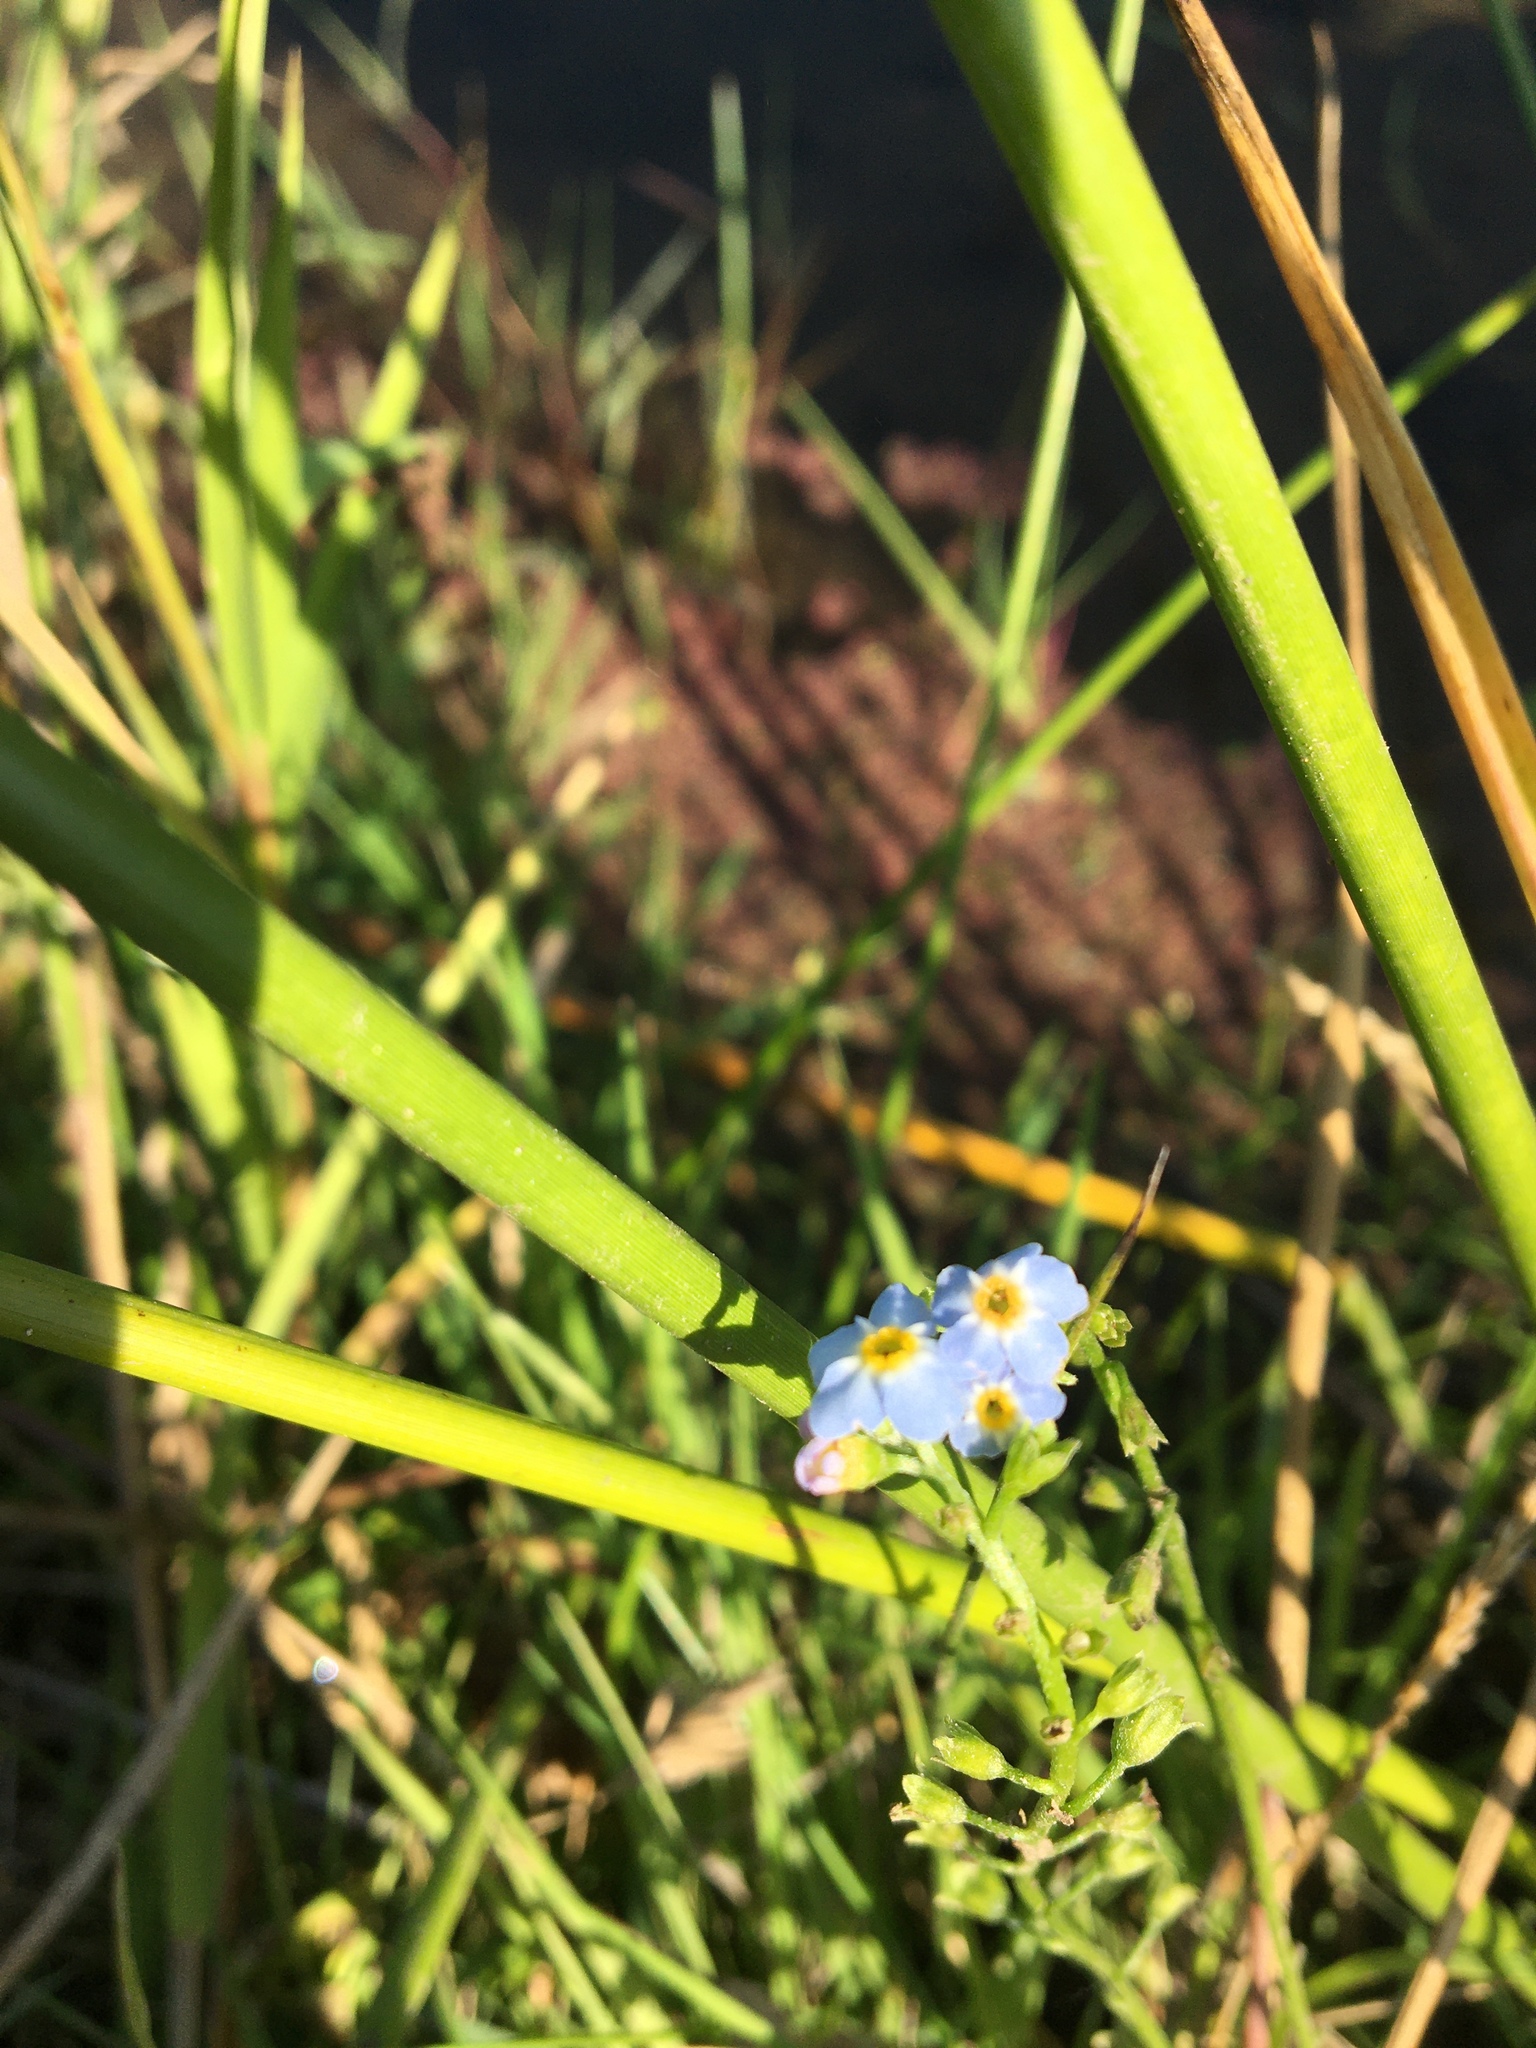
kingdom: Plantae
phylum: Tracheophyta
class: Magnoliopsida
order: Boraginales
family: Boraginaceae
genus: Myosotis
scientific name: Myosotis scorpioides
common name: Water forget-me-not
